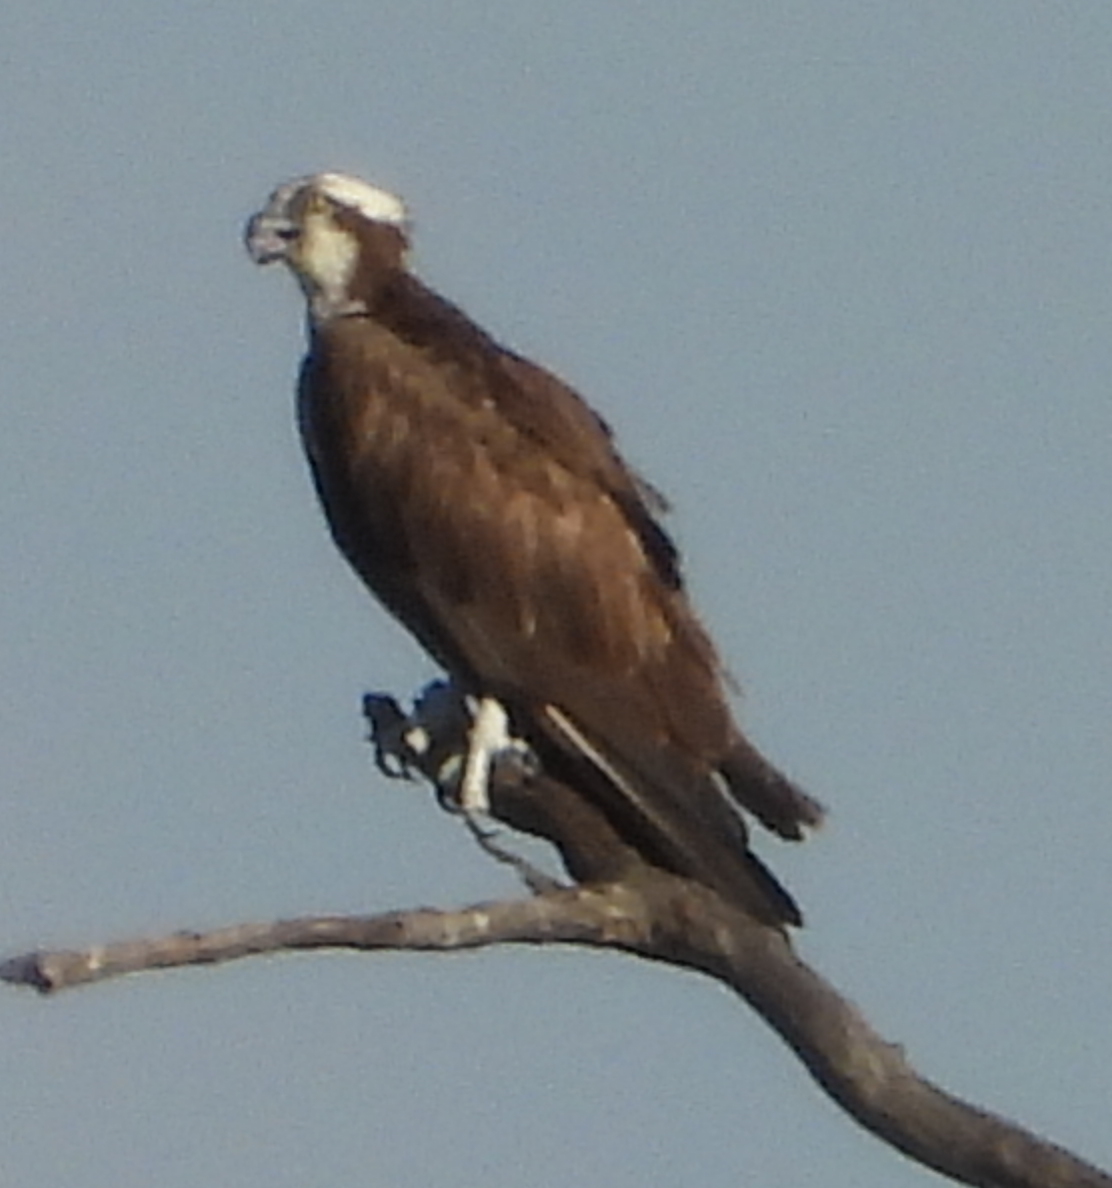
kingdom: Animalia
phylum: Chordata
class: Aves
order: Accipitriformes
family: Pandionidae
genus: Pandion
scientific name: Pandion haliaetus
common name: Osprey
